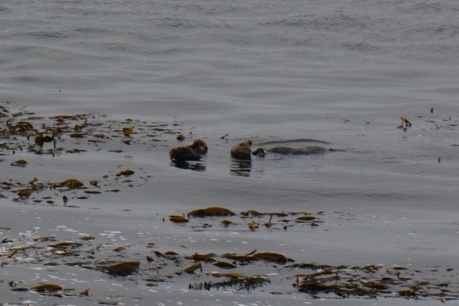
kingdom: Animalia
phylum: Chordata
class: Mammalia
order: Carnivora
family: Mustelidae
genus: Enhydra
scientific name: Enhydra lutris
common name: Sea otter
